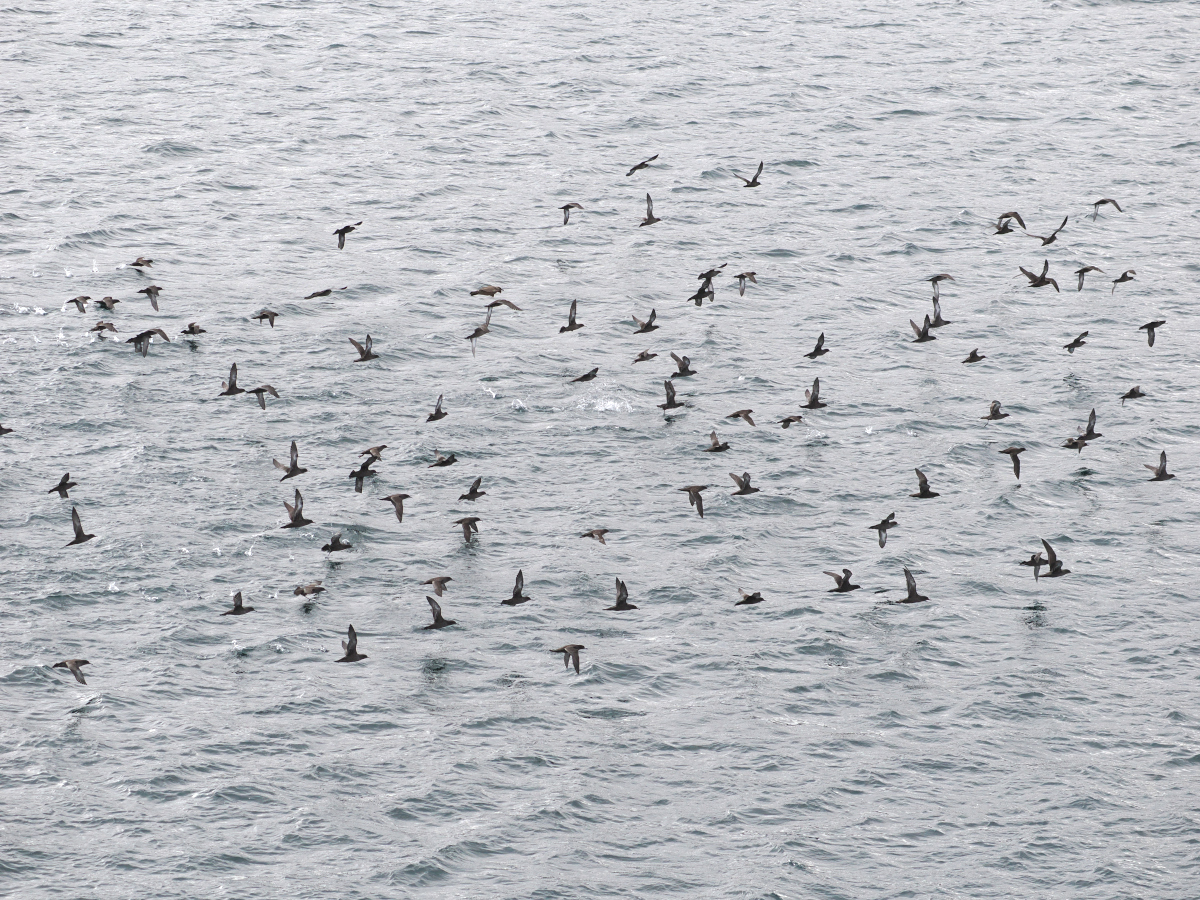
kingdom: Animalia
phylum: Chordata
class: Aves
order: Procellariiformes
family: Procellariidae
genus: Puffinus
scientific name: Puffinus griseus
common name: Sooty shearwater
